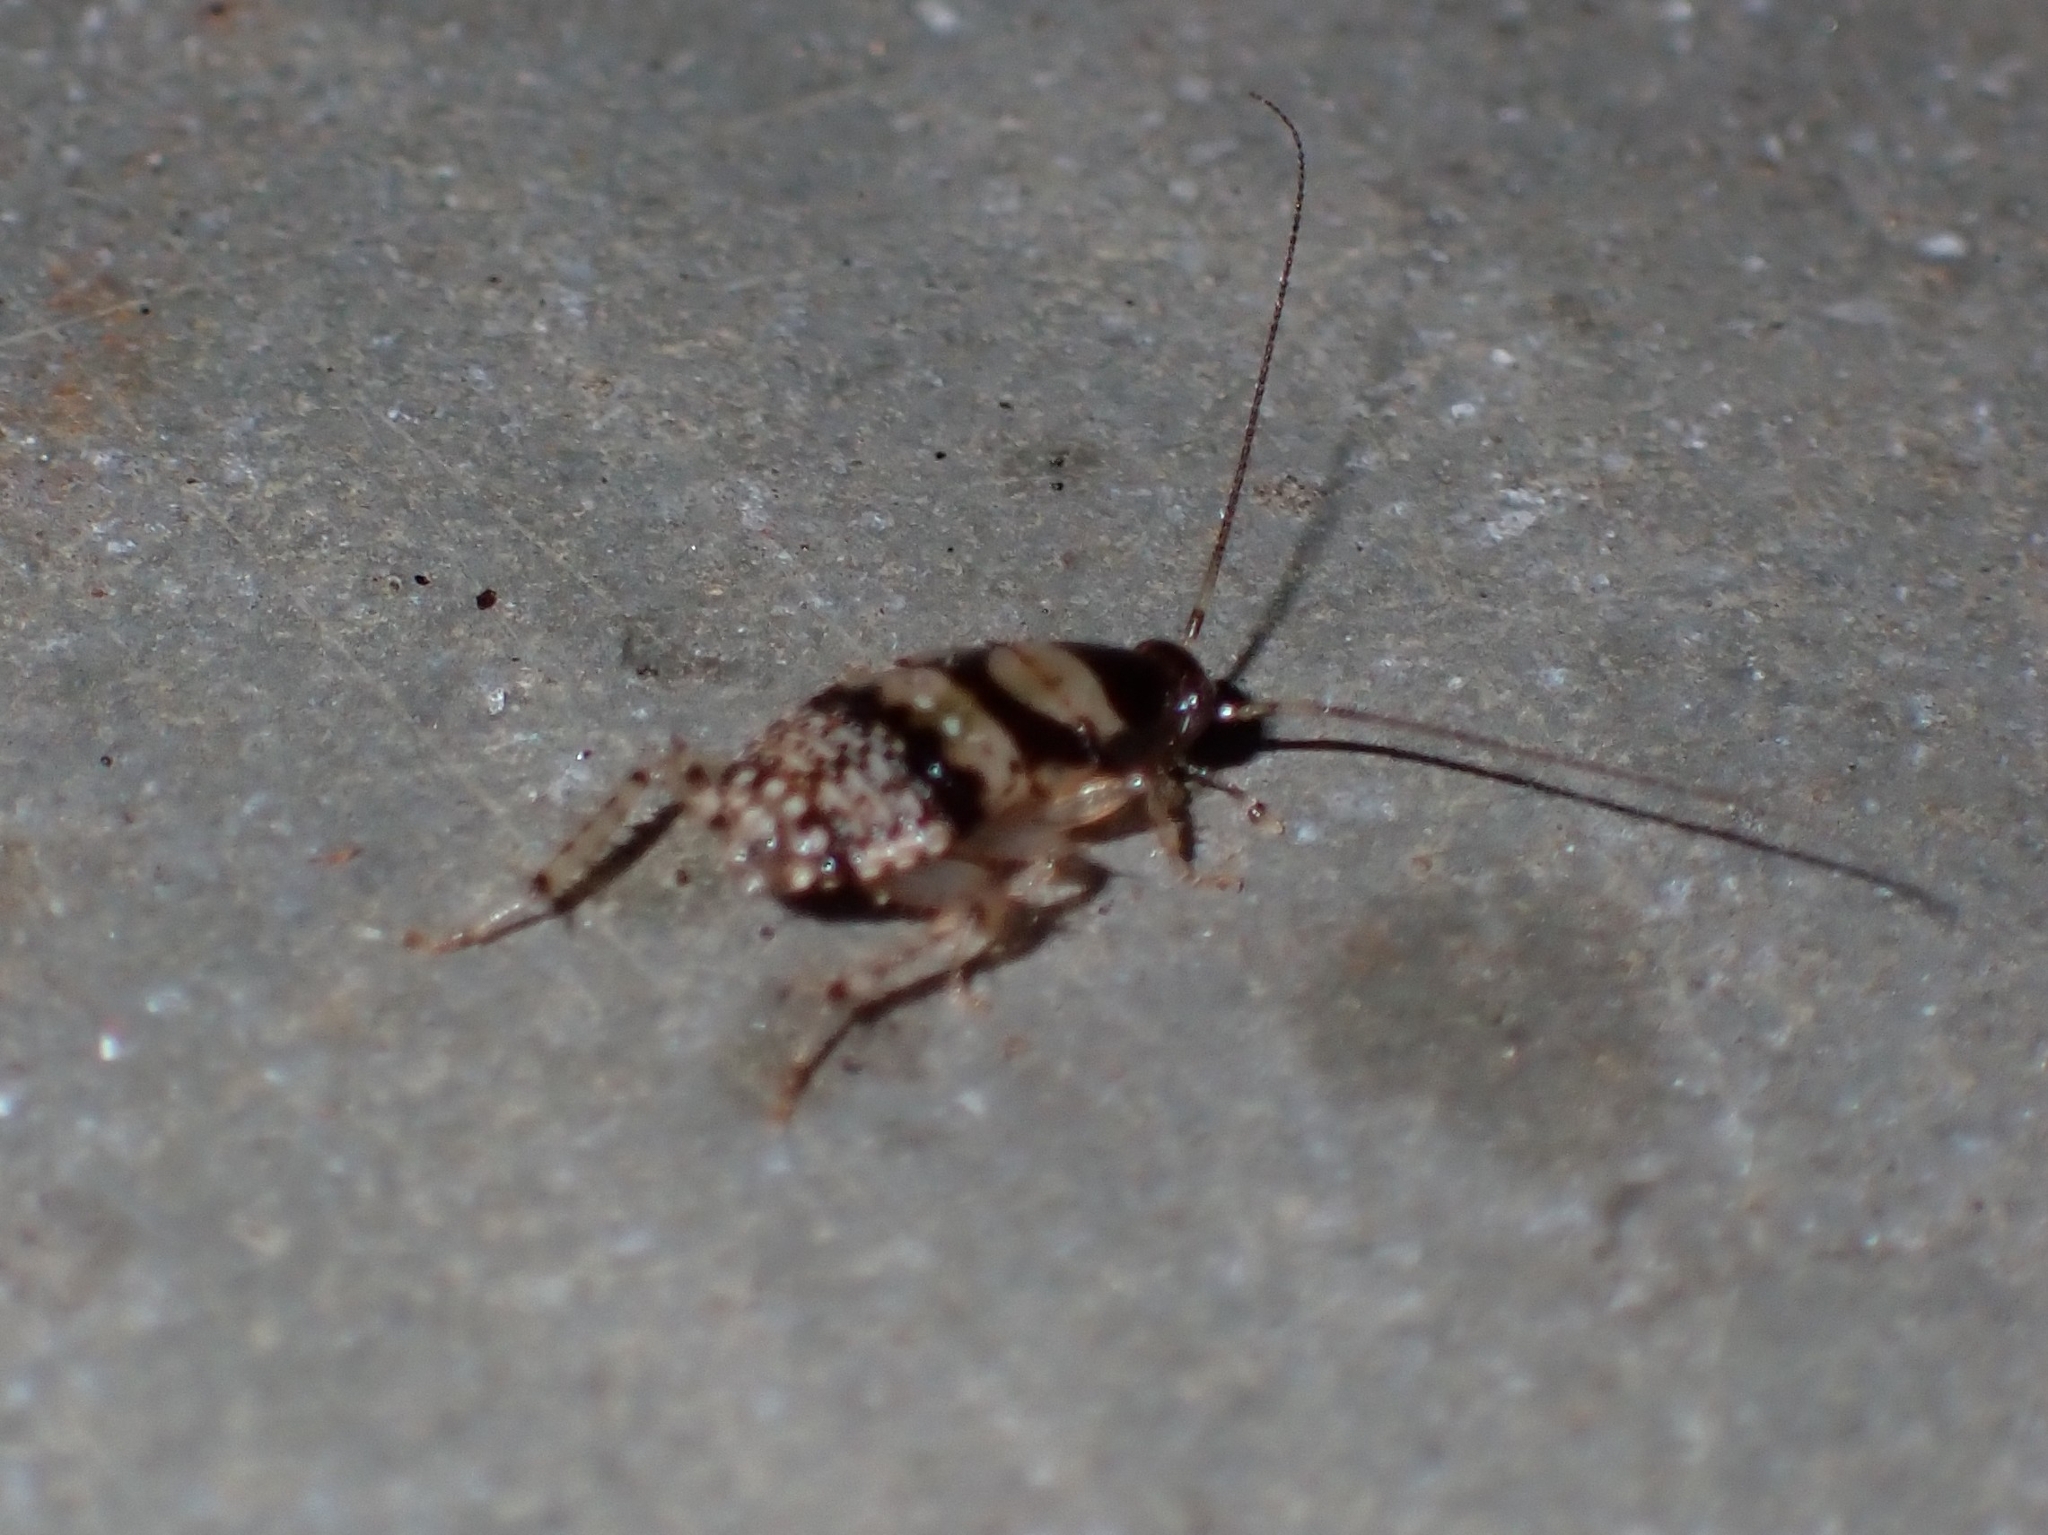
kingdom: Animalia
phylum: Arthropoda
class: Insecta
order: Blattodea
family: Ectobiidae
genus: Balta
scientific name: Balta notulata
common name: Cockroach
